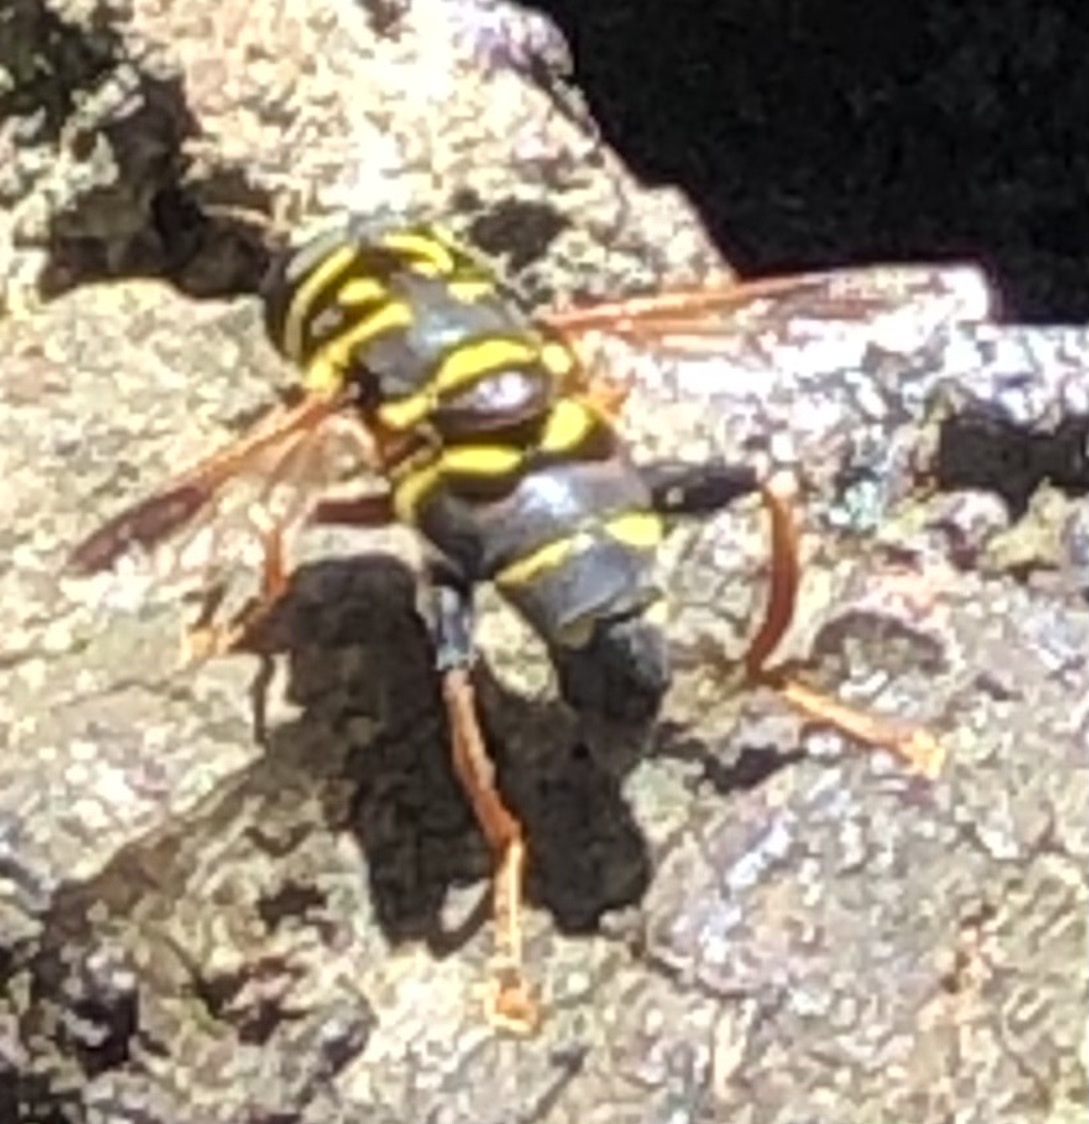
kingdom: Animalia
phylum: Arthropoda
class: Insecta
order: Diptera
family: Syrphidae
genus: Meromacrus
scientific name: Meromacrus acutus
